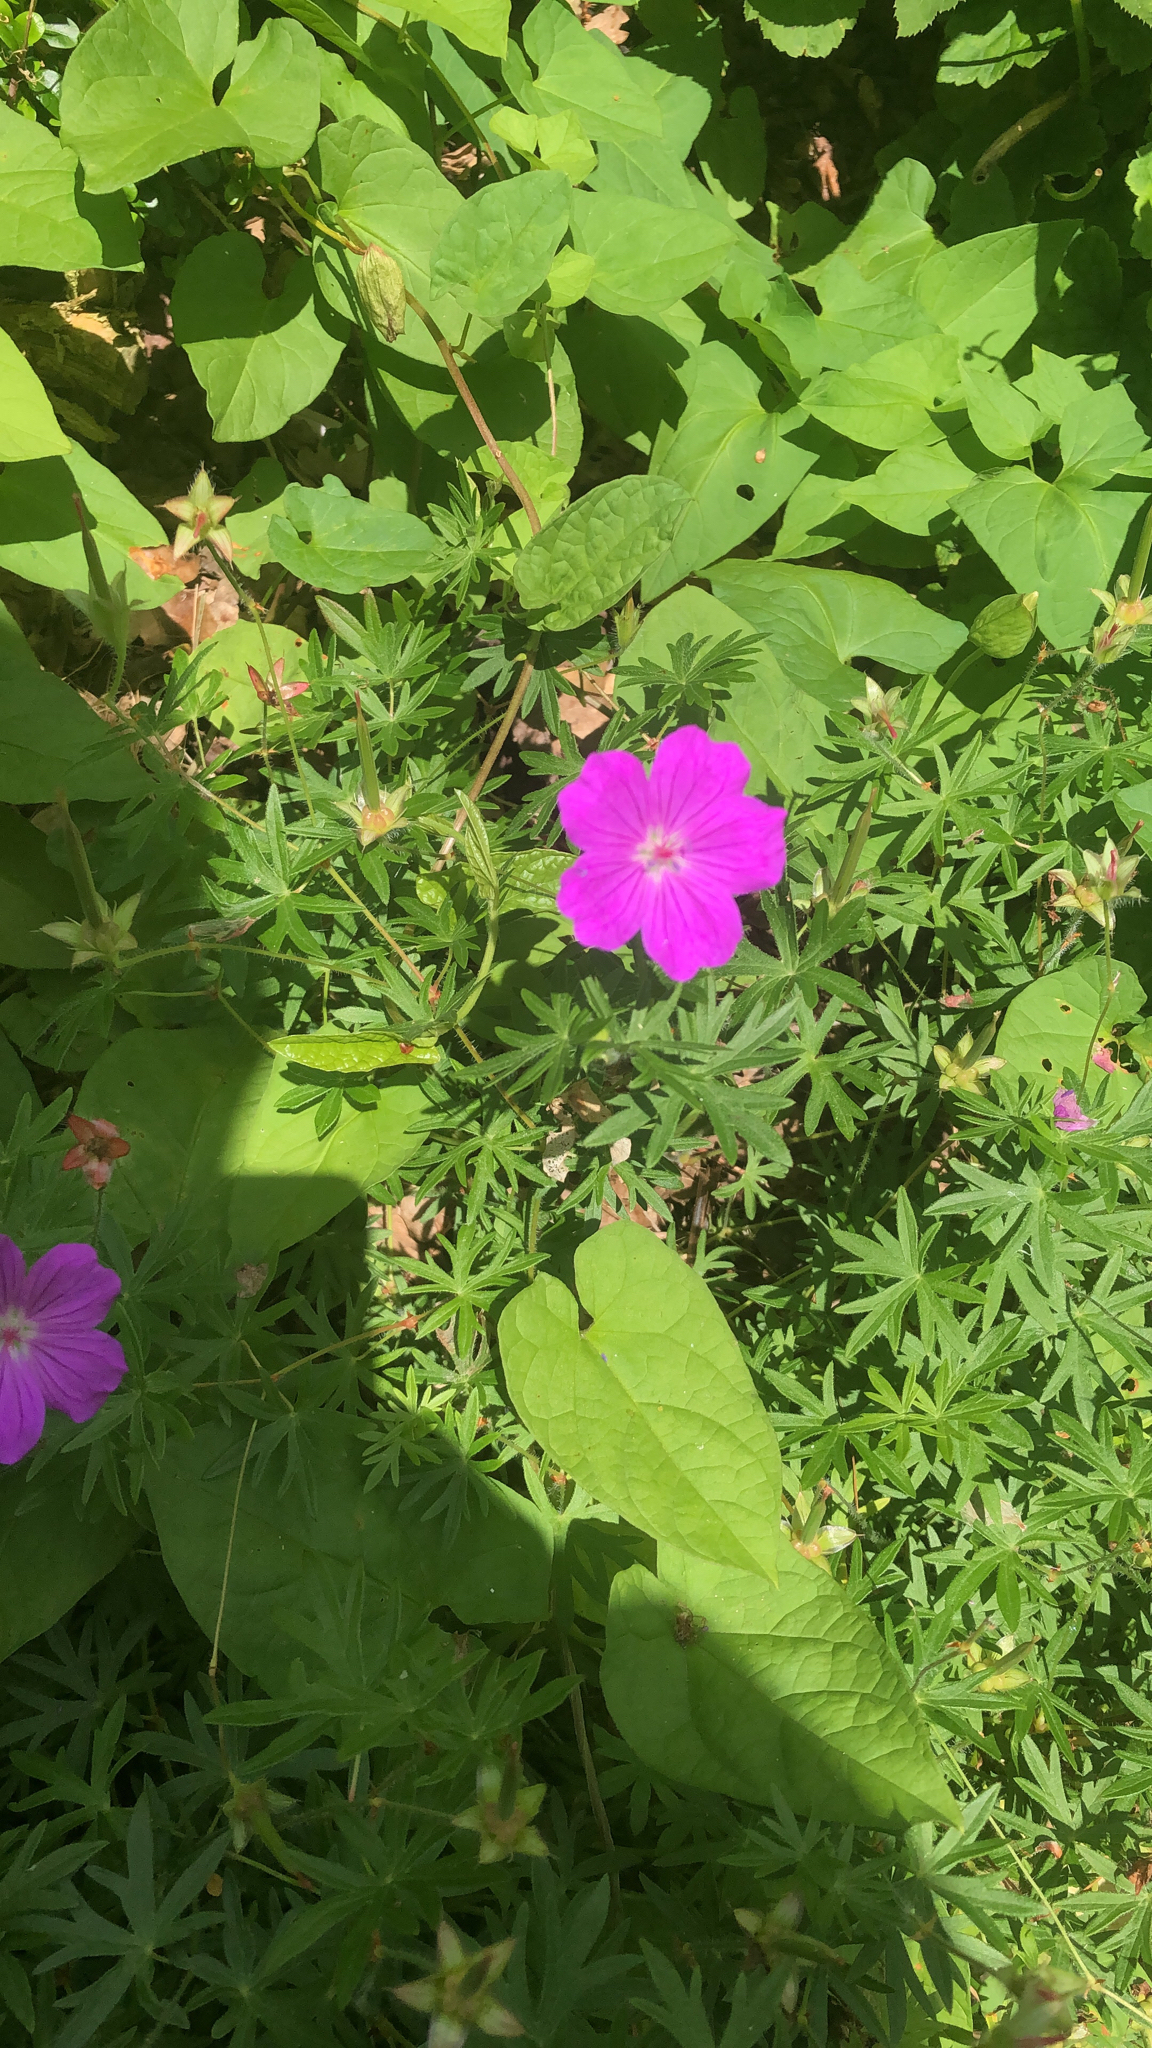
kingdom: Plantae
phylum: Tracheophyta
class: Magnoliopsida
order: Geraniales
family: Geraniaceae
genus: Geranium
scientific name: Geranium sanguineum
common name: Bloody crane's-bill
